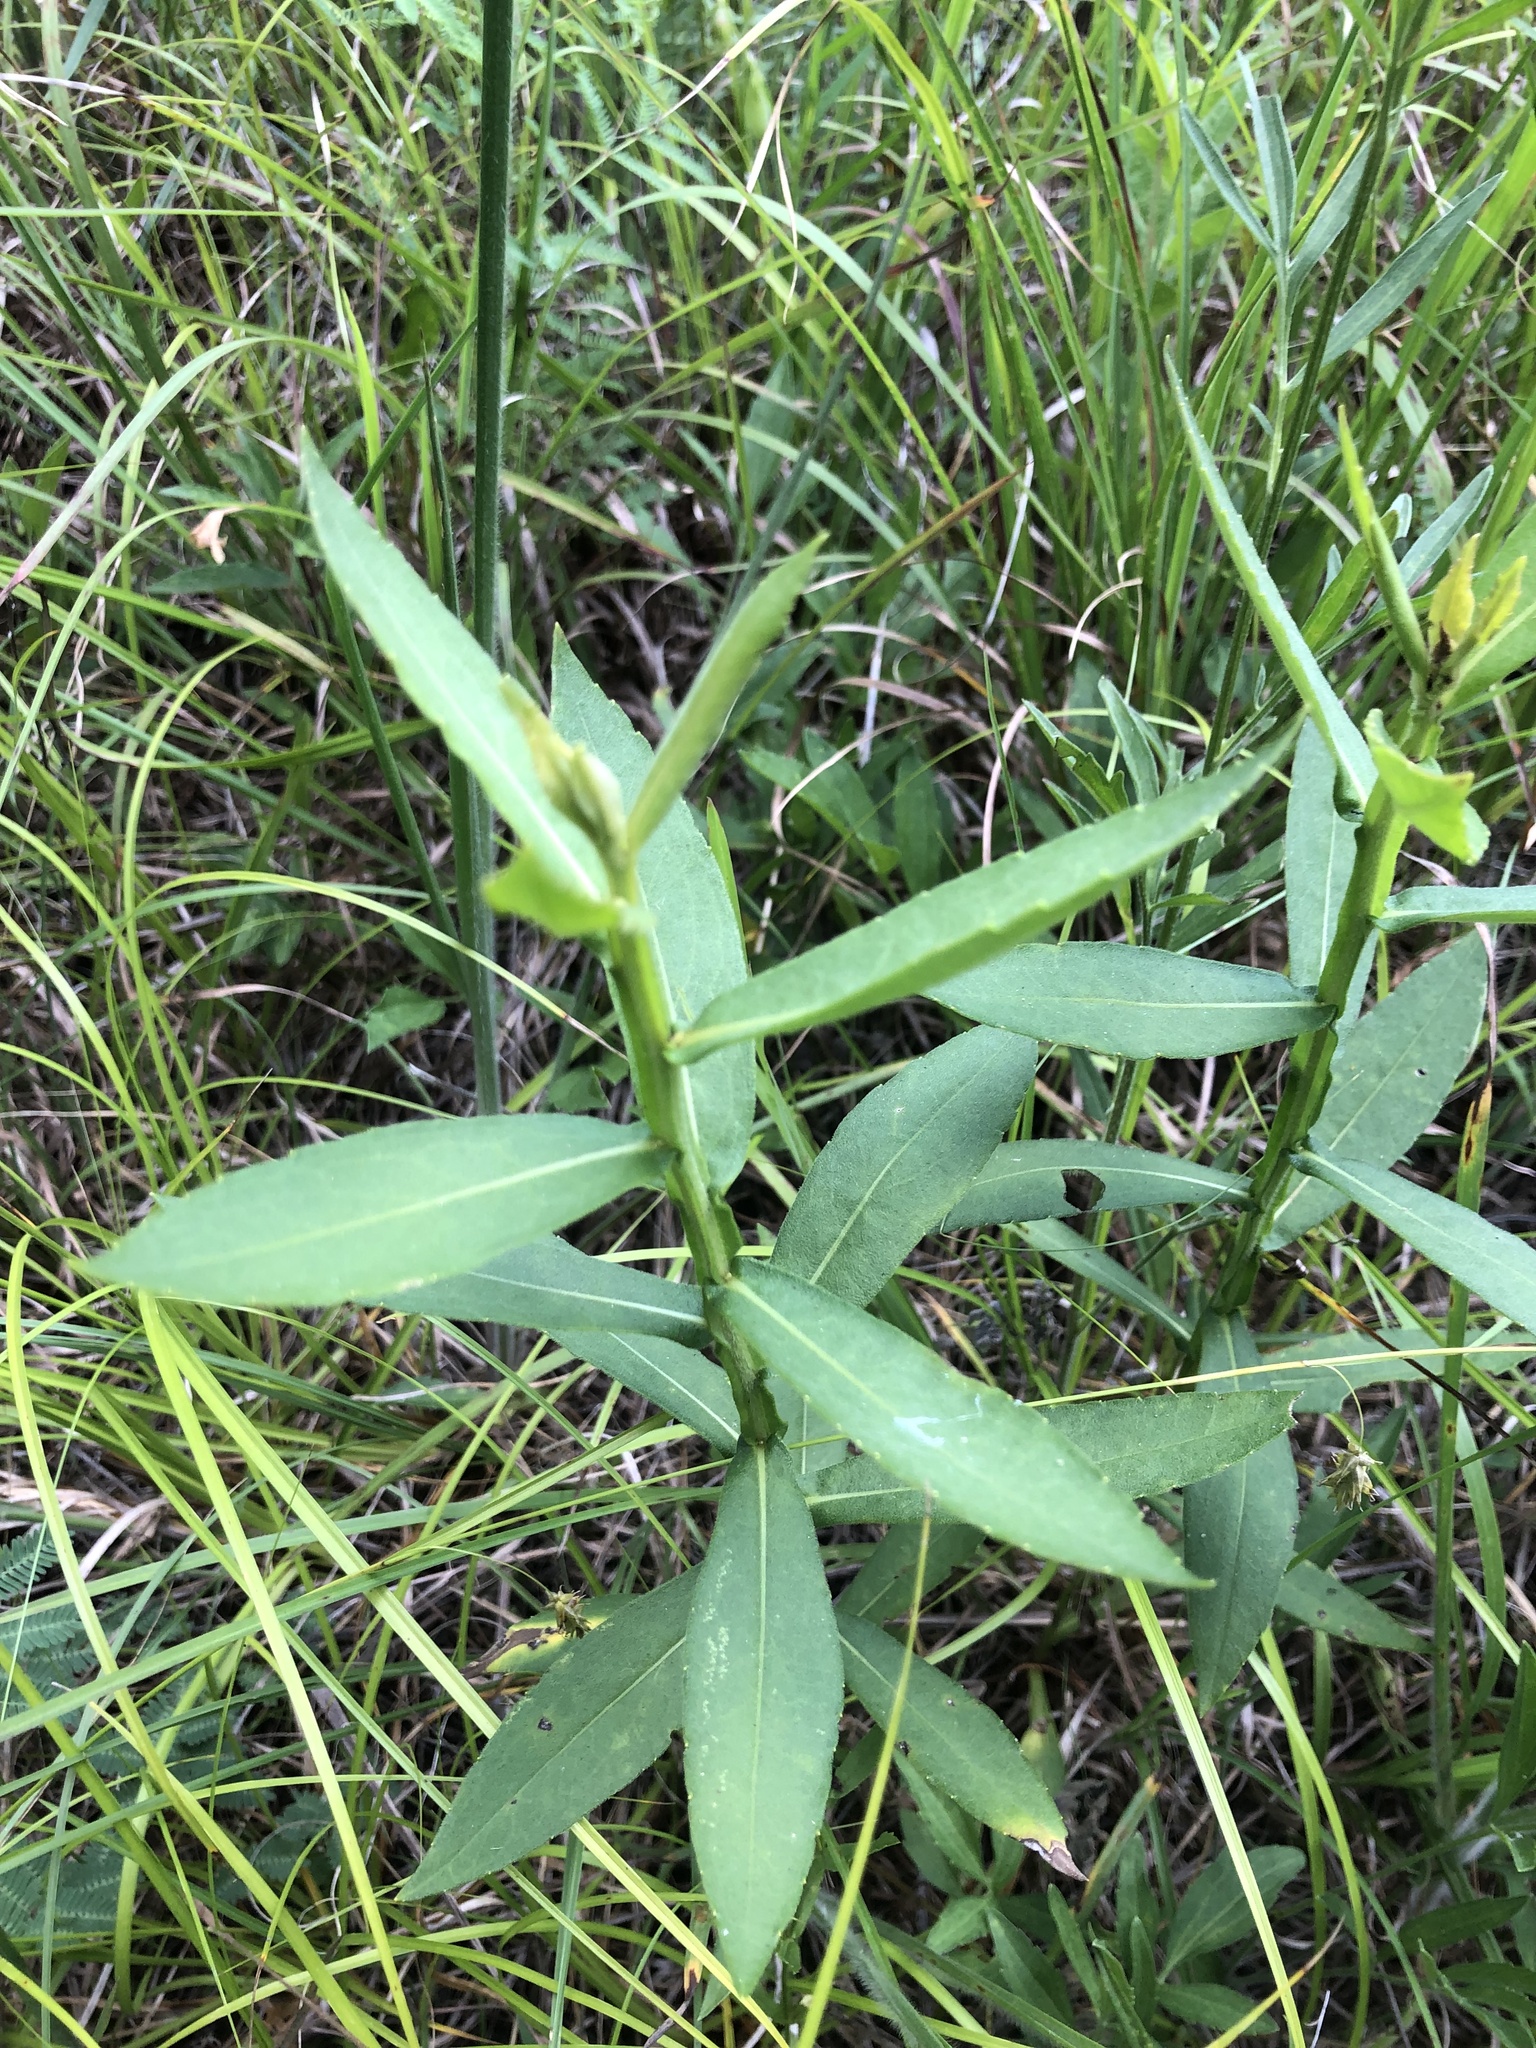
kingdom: Plantae
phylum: Tracheophyta
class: Magnoliopsida
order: Asterales
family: Asteraceae
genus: Helenium
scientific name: Helenium autumnale
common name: Sneezeweed
